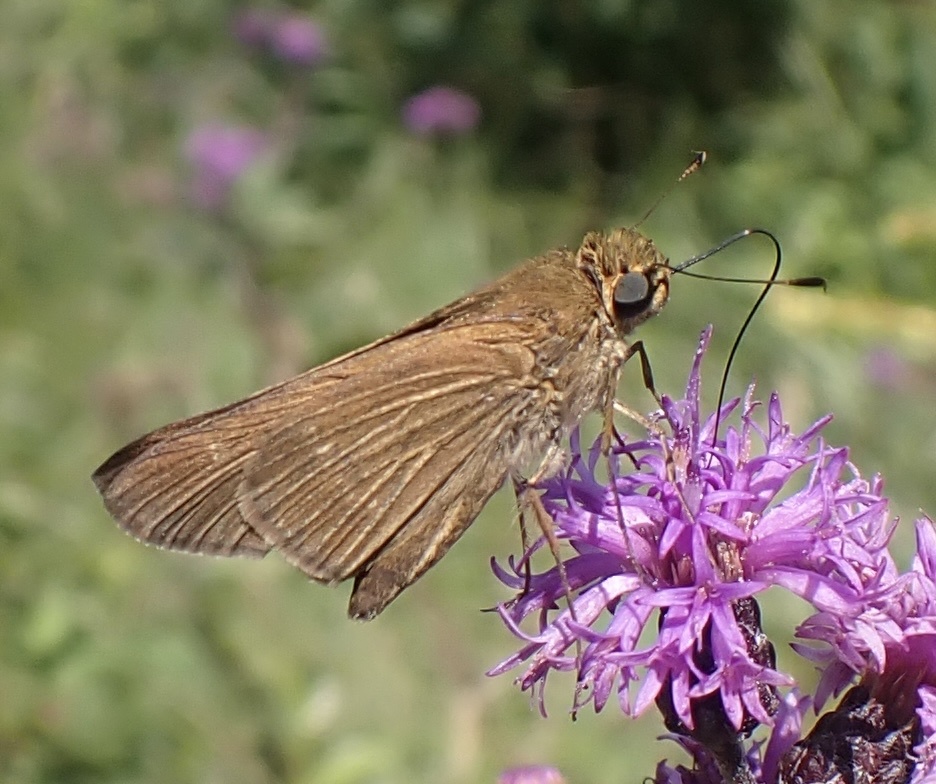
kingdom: Animalia
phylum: Arthropoda
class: Insecta
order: Lepidoptera
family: Hesperiidae
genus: Panoquina
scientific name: Panoquina ocola
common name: Ocola skipper
